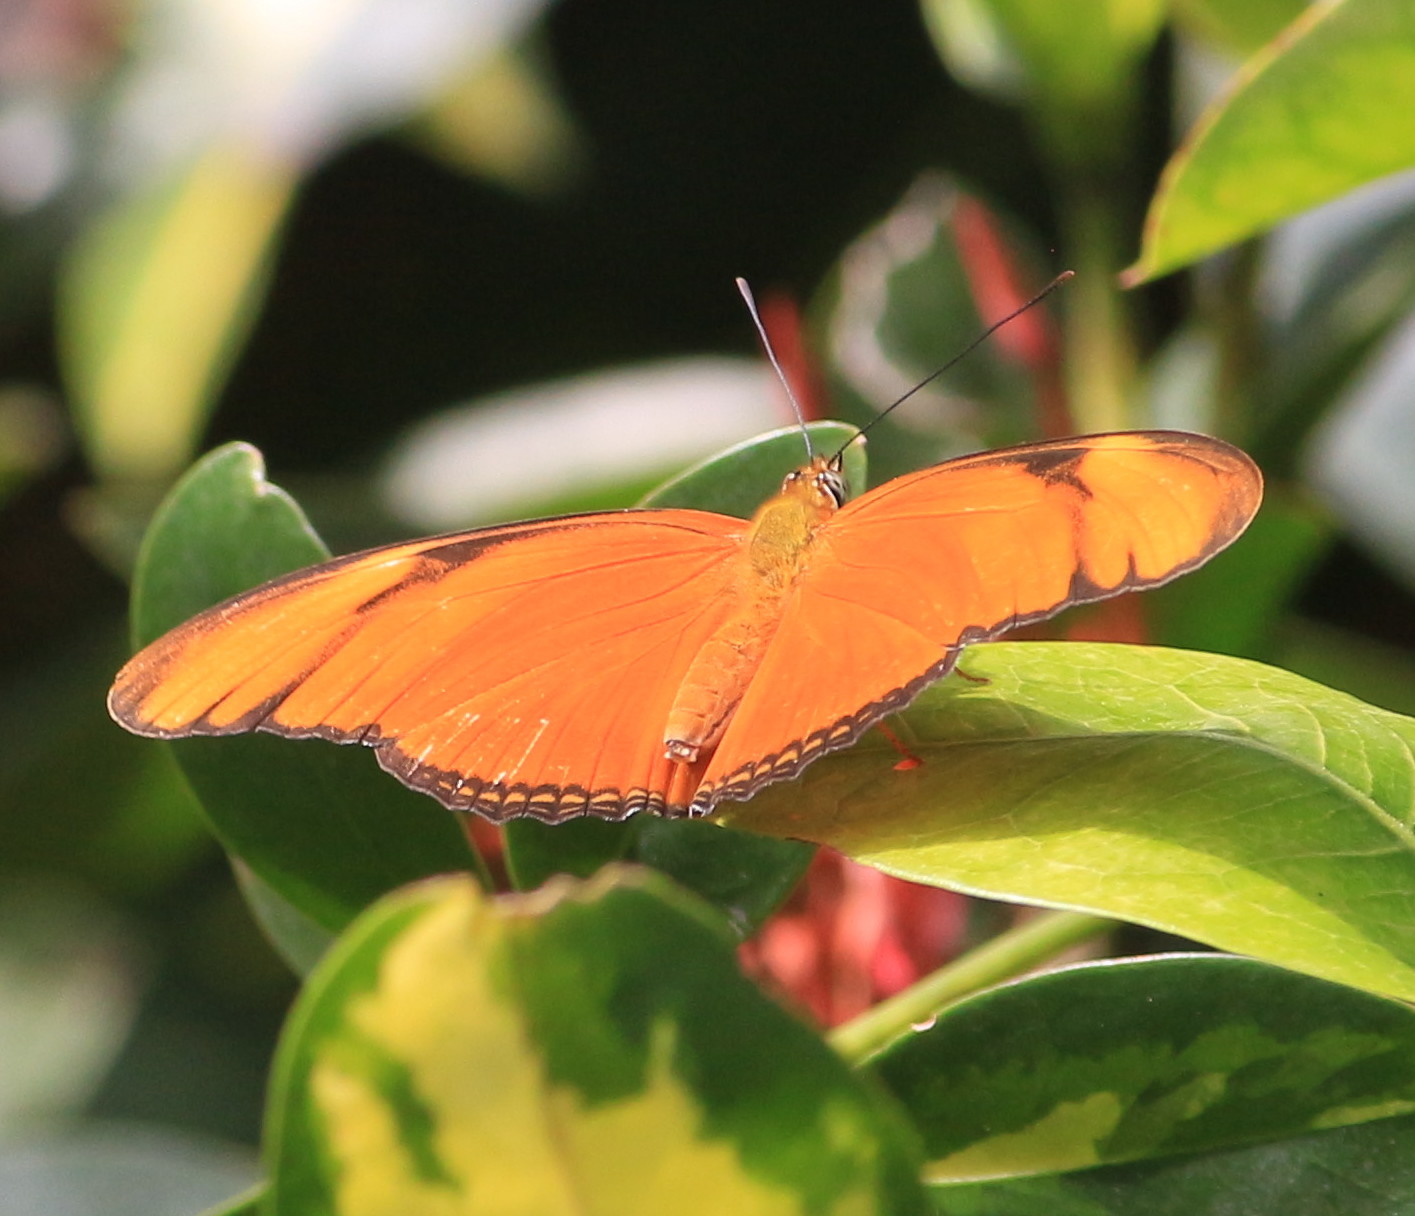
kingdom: Animalia
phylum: Arthropoda
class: Insecta
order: Lepidoptera
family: Nymphalidae
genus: Dryas
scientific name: Dryas iulia
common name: Flambeau
